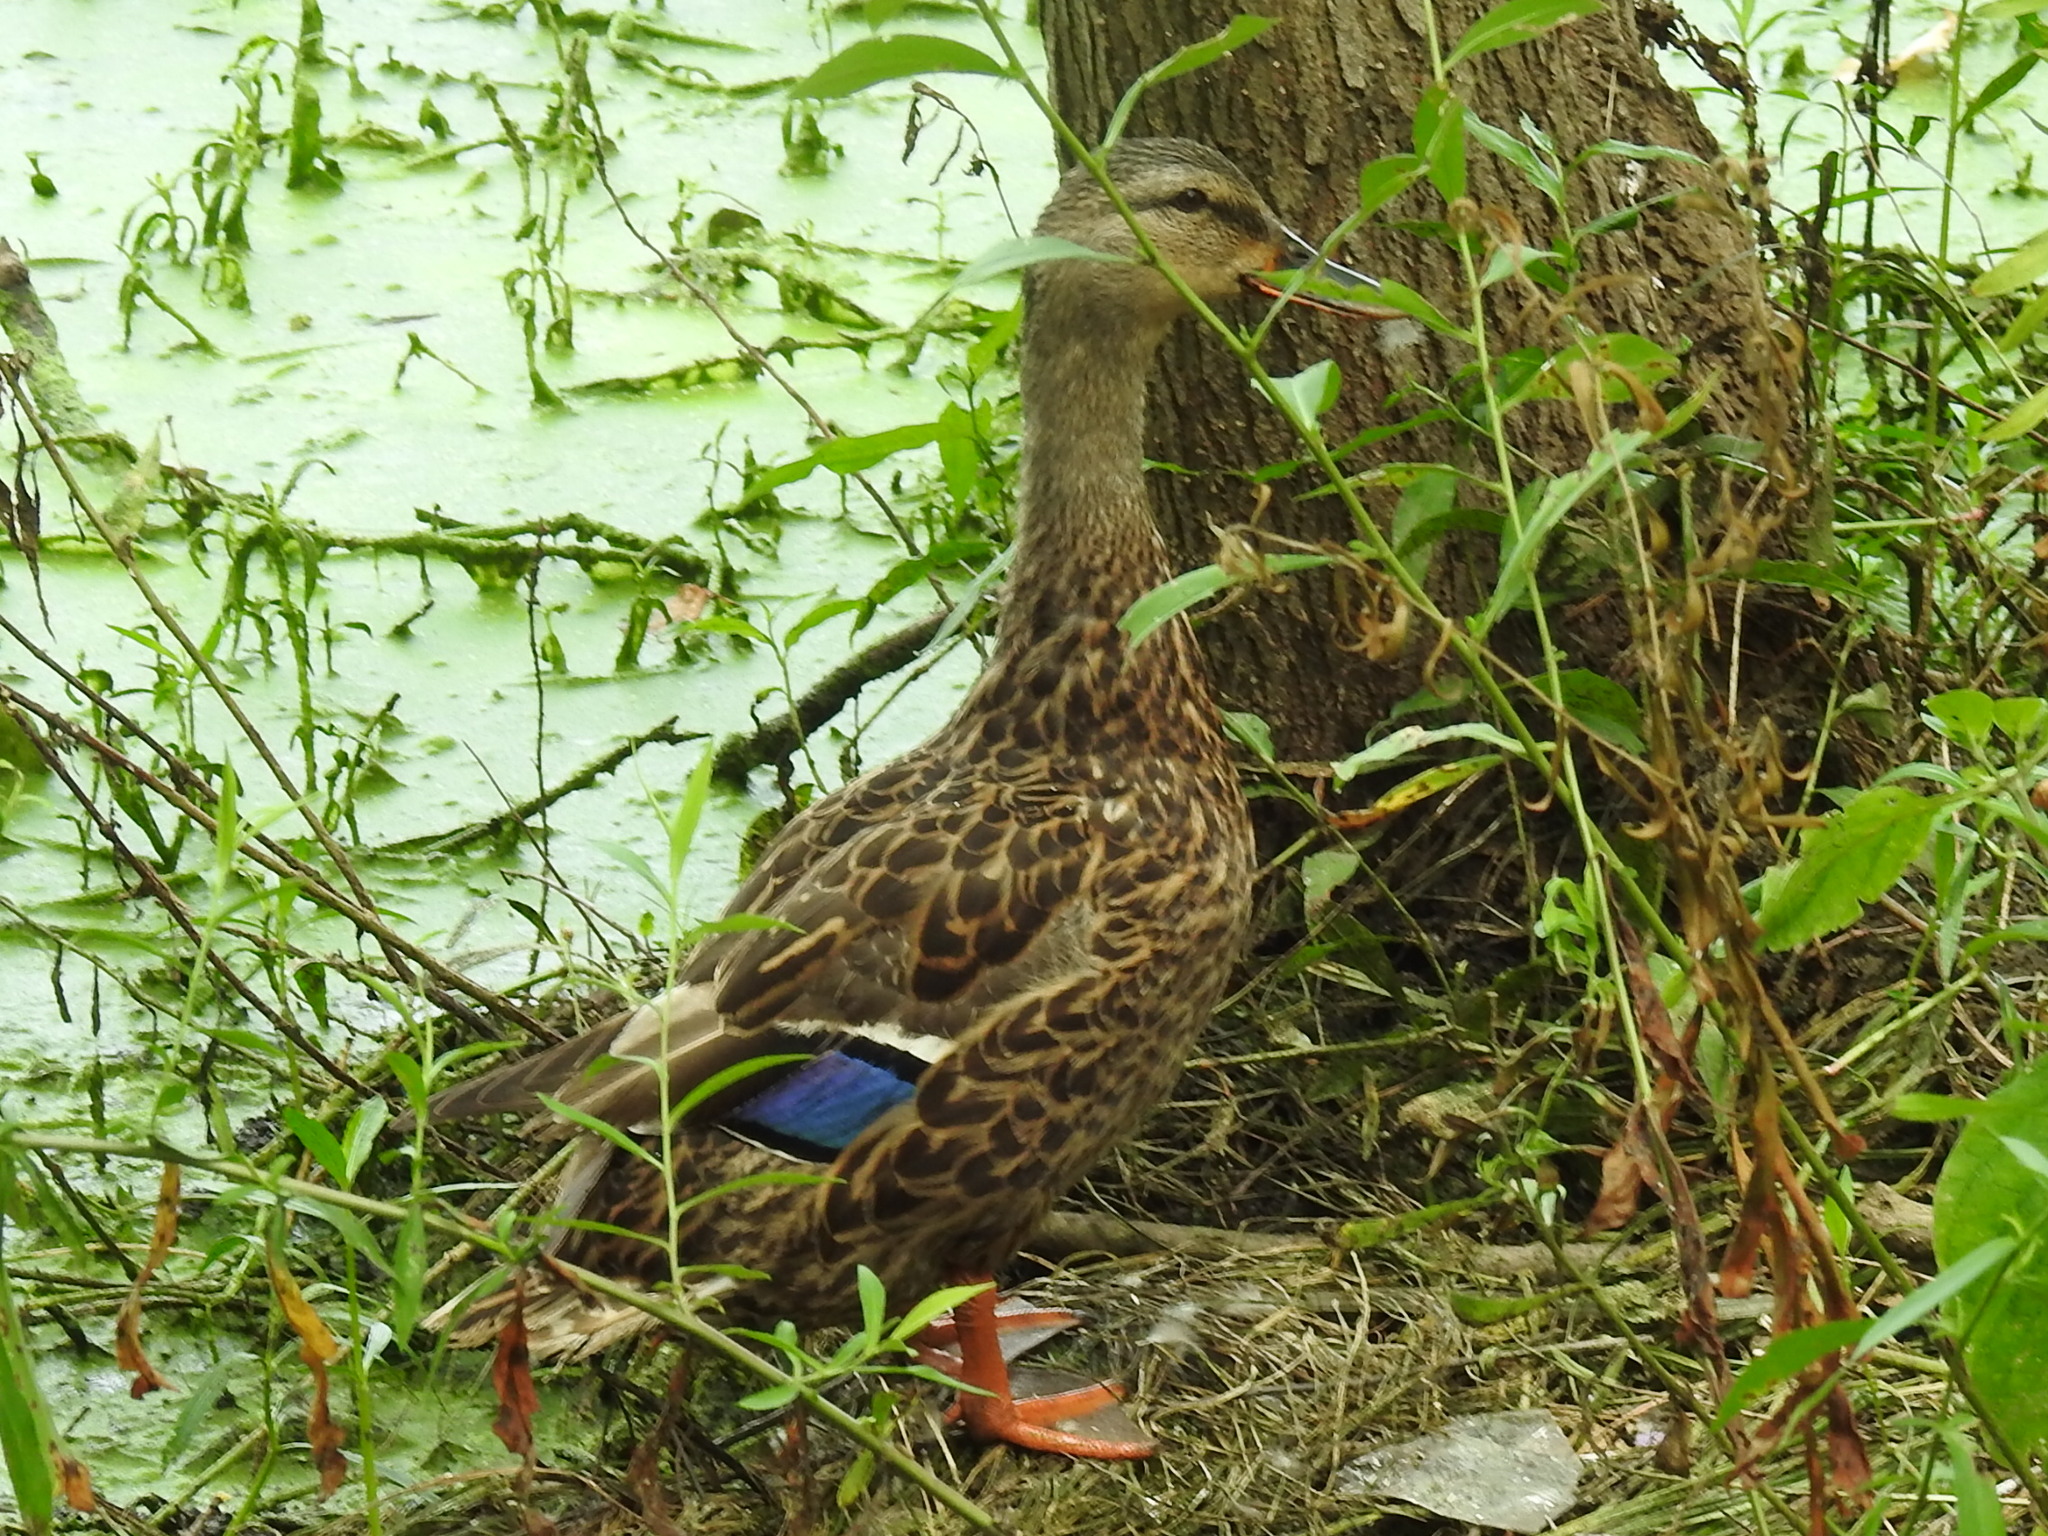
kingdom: Animalia
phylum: Chordata
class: Aves
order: Anseriformes
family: Anatidae
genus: Anas
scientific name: Anas platyrhynchos
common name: Mallard
